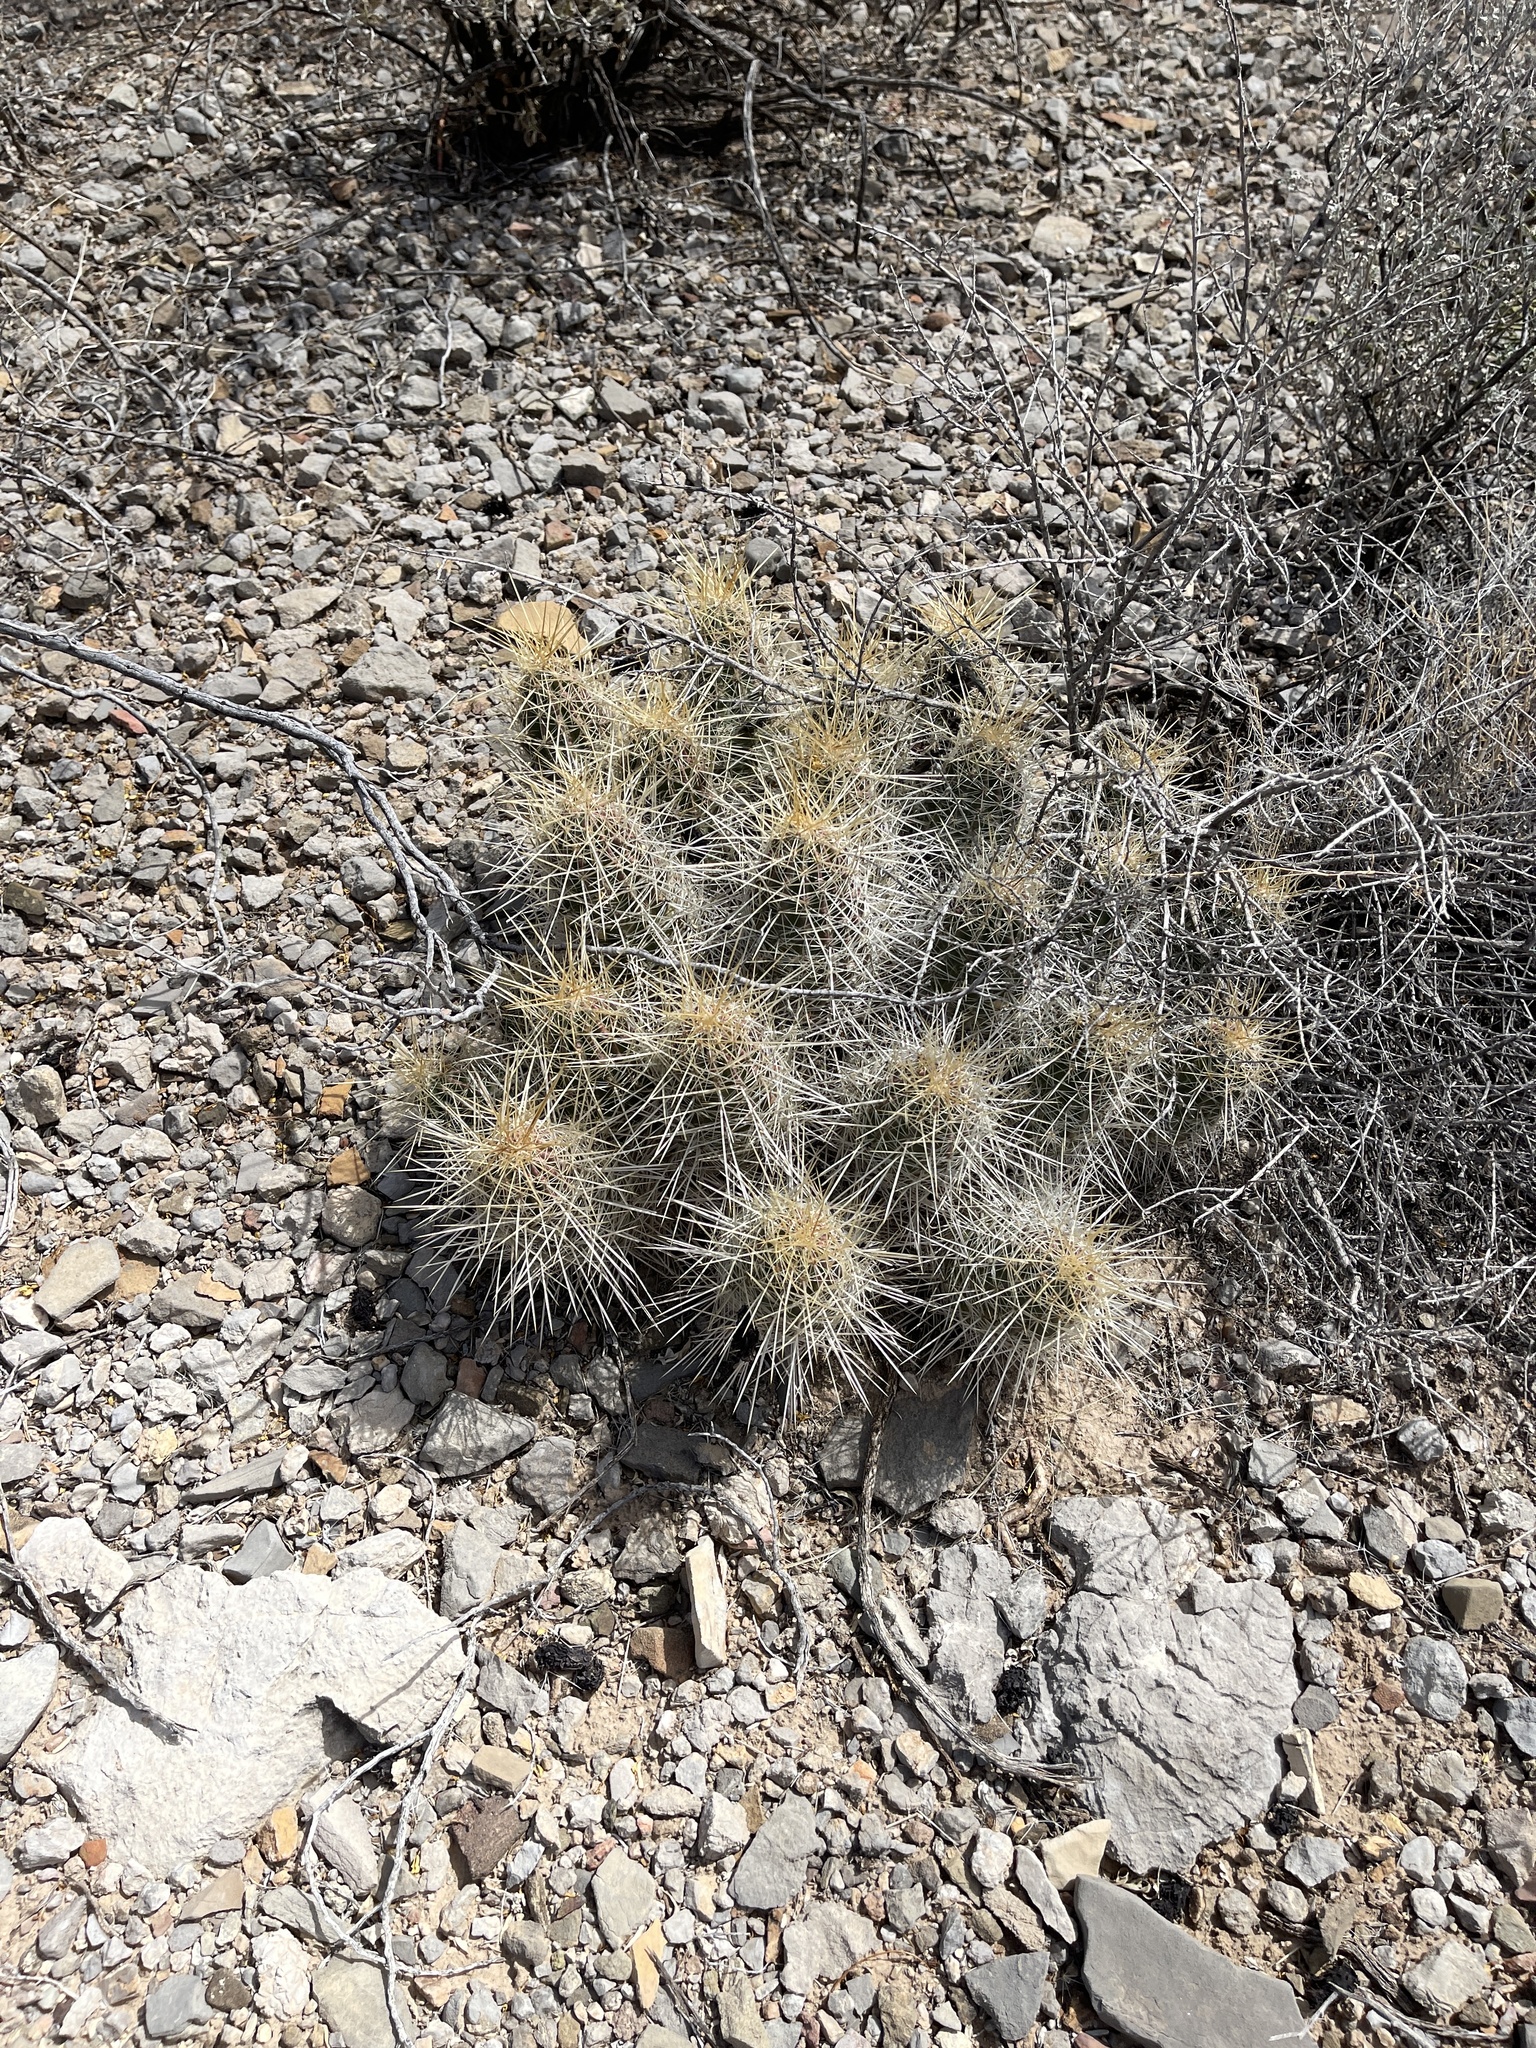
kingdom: Plantae
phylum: Tracheophyta
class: Magnoliopsida
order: Caryophyllales
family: Cactaceae
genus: Echinocereus
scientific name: Echinocereus stramineus
